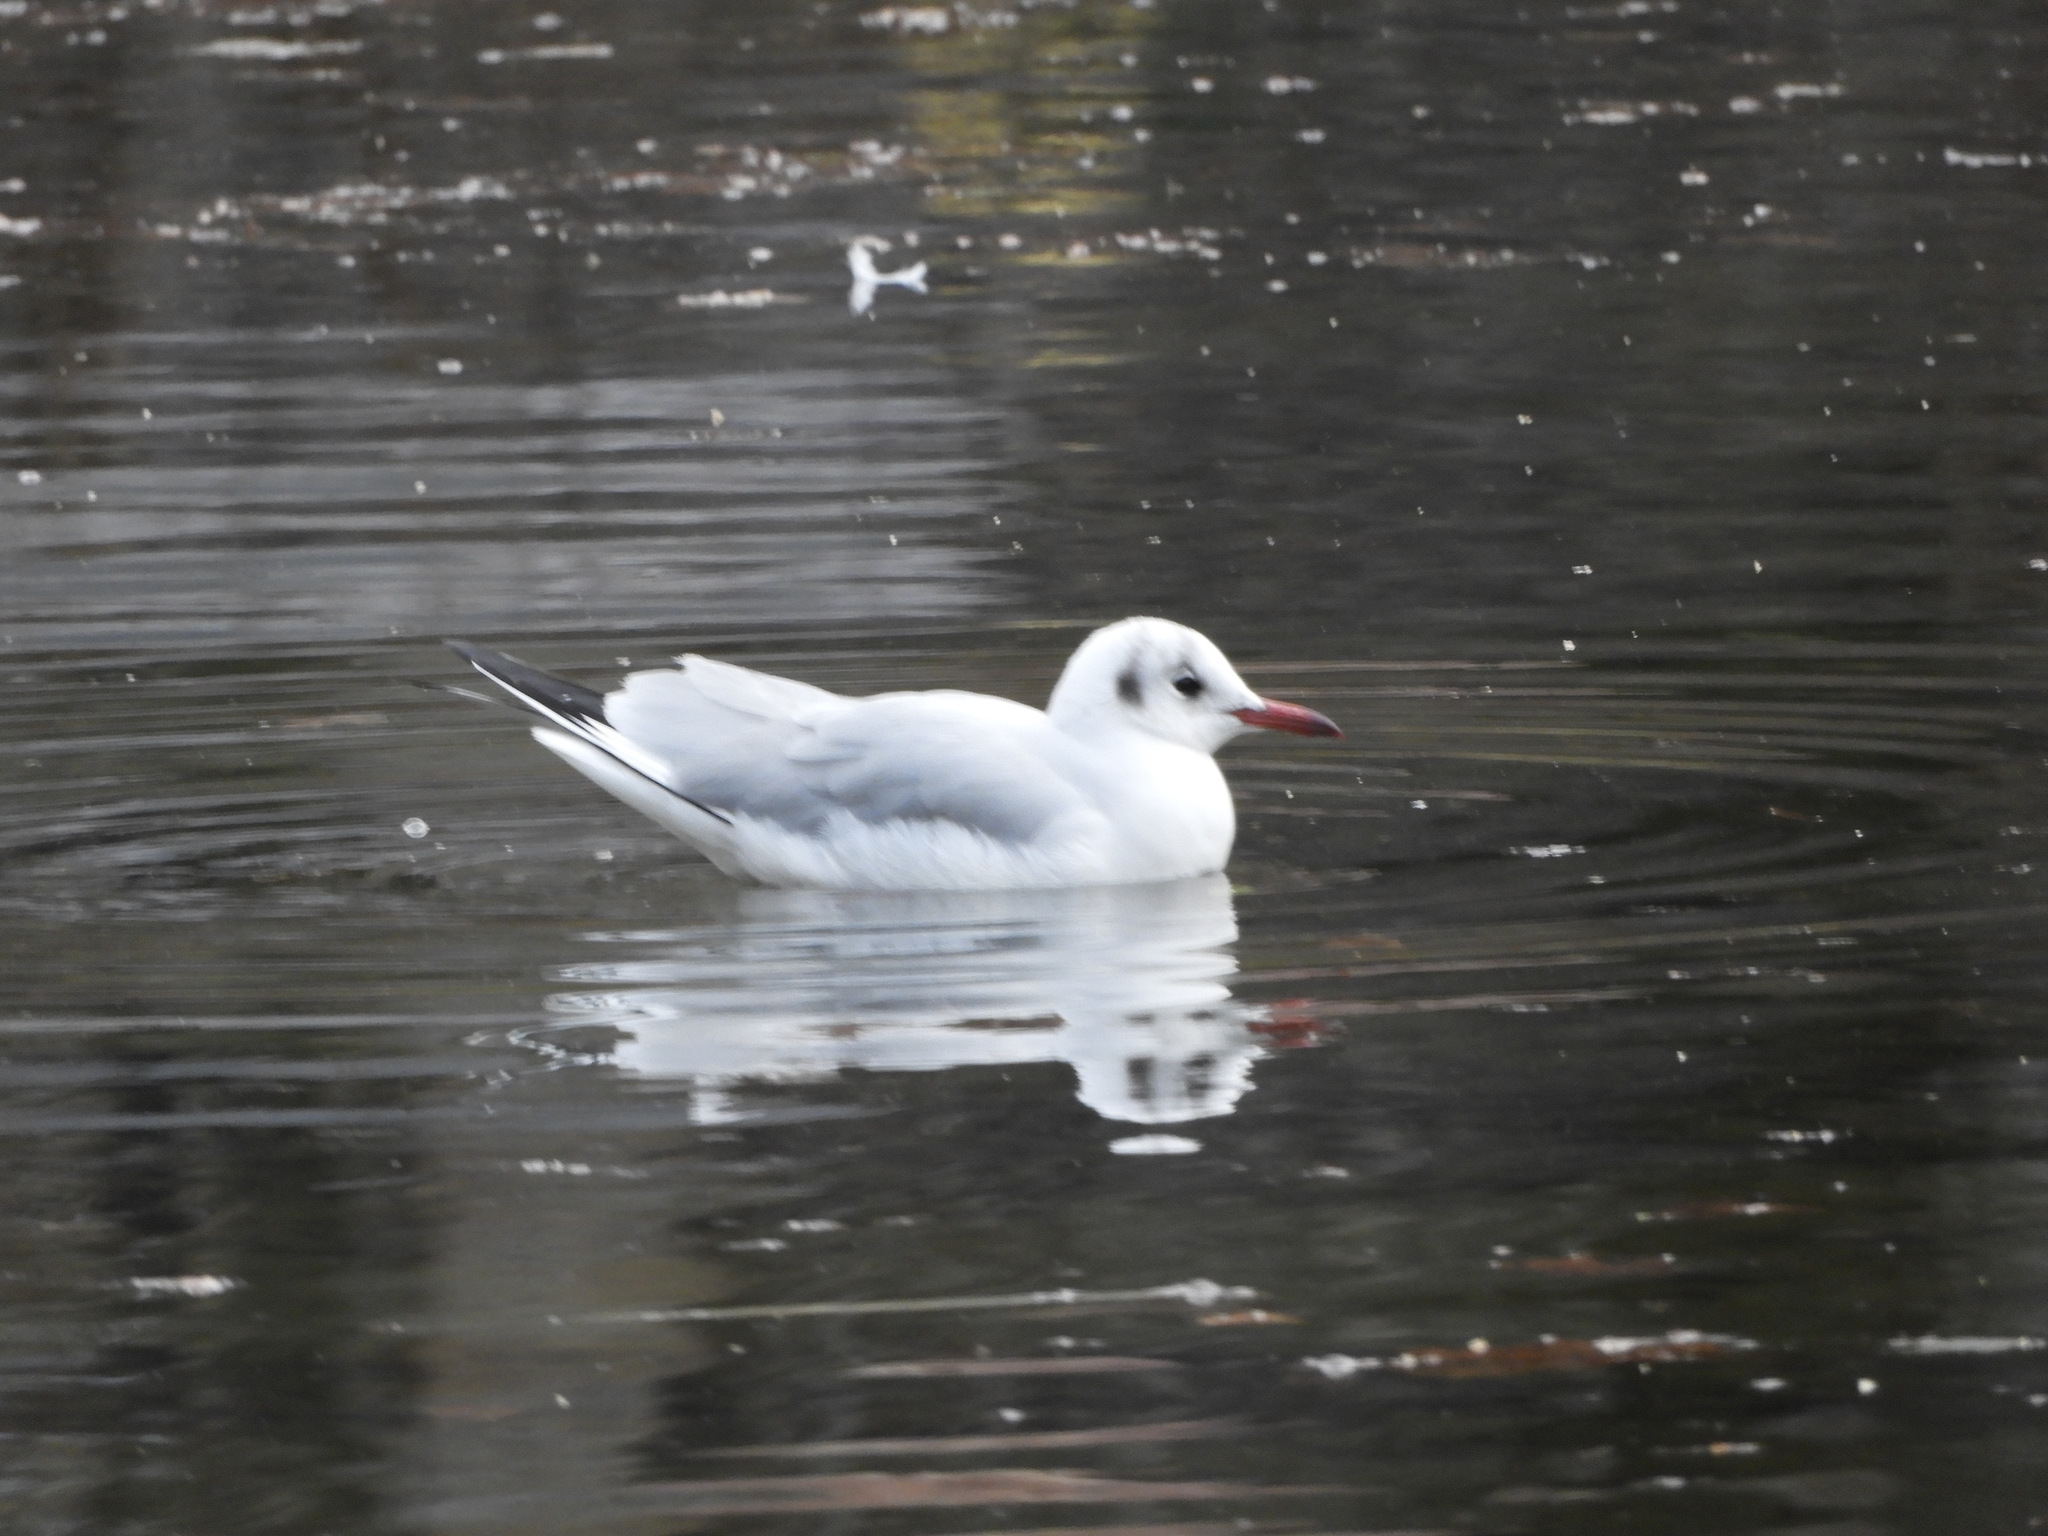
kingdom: Animalia
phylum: Chordata
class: Aves
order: Charadriiformes
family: Laridae
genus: Chroicocephalus
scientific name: Chroicocephalus ridibundus
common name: Black-headed gull
